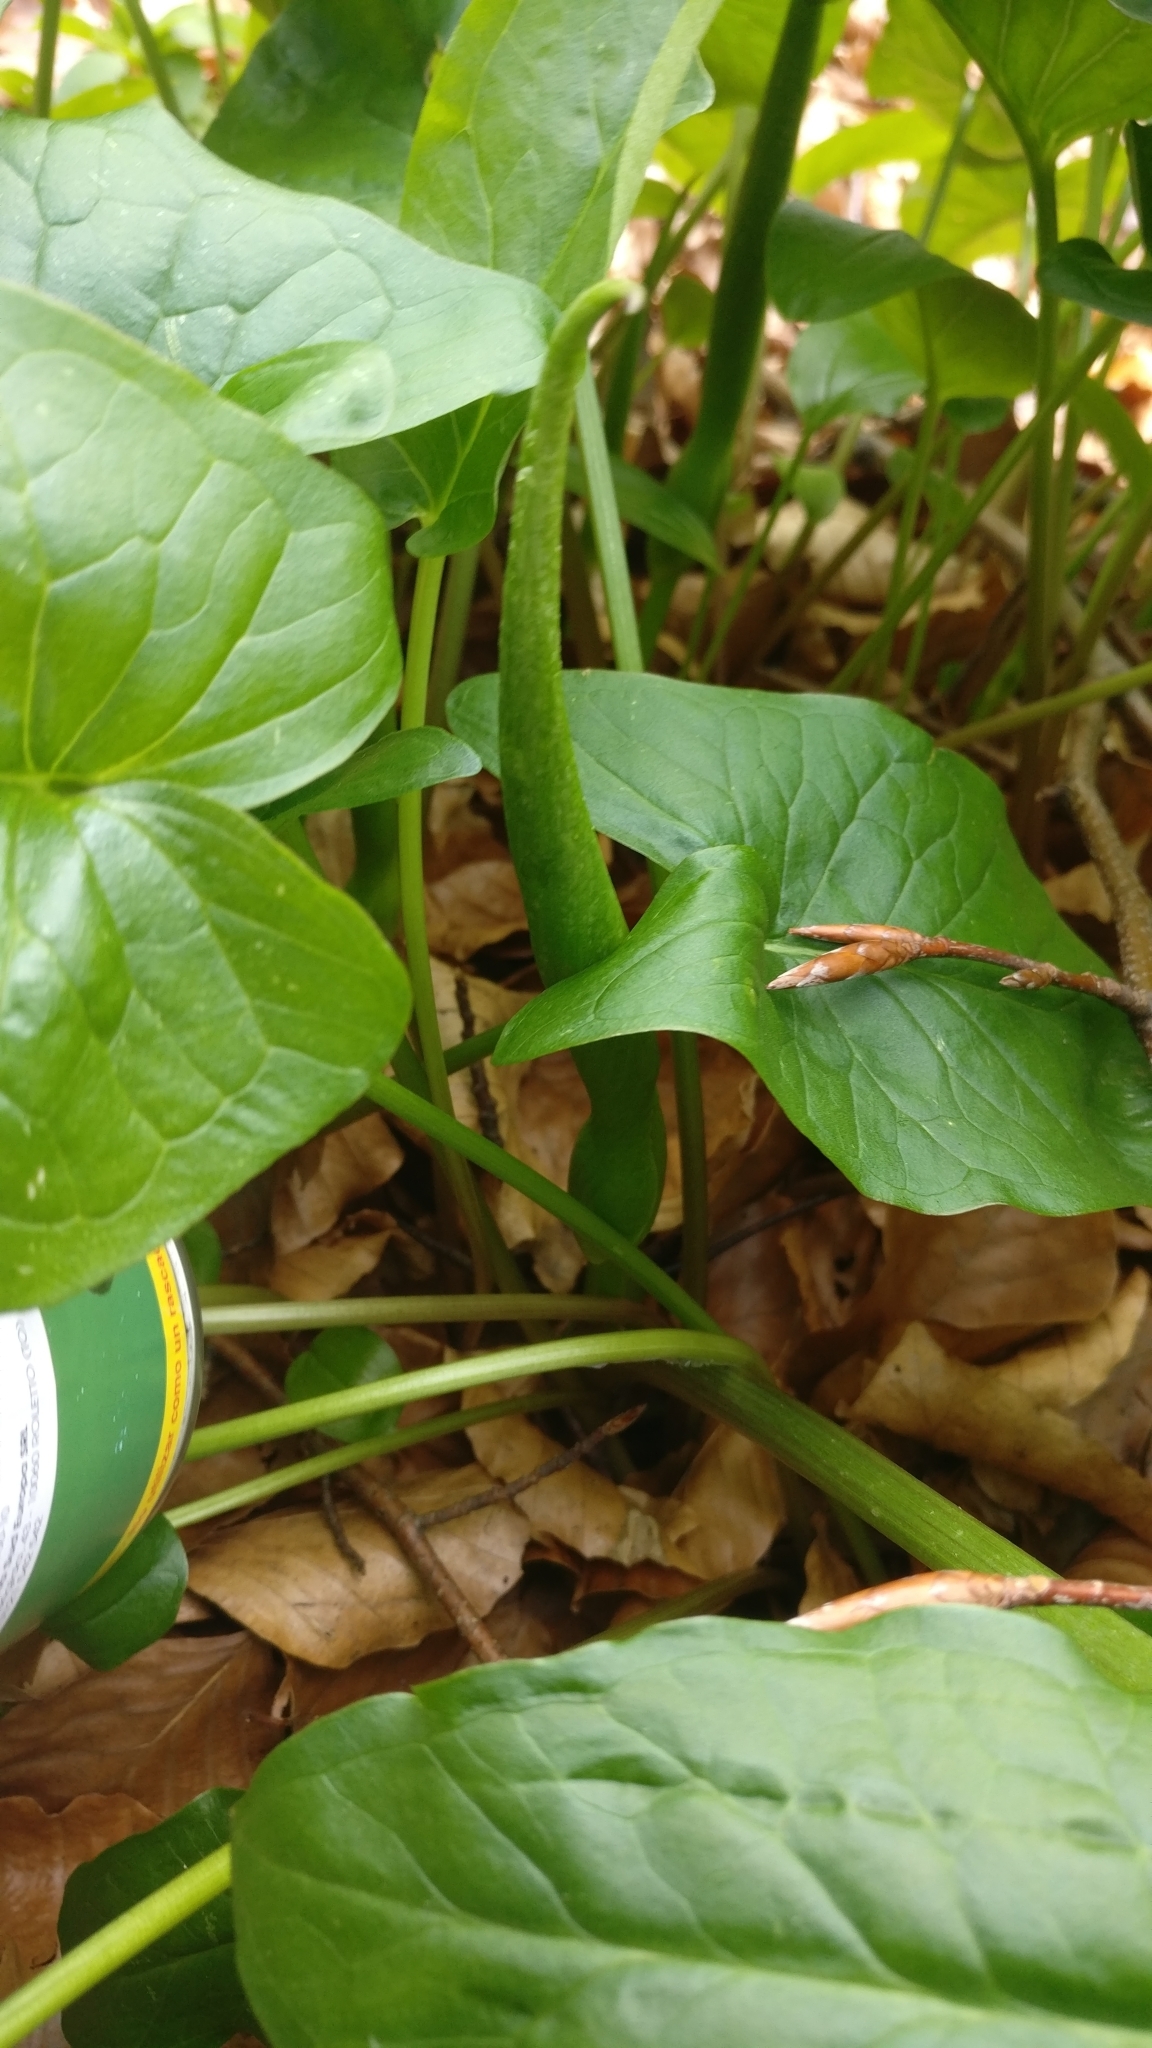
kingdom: Plantae
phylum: Tracheophyta
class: Liliopsida
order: Alismatales
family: Araceae
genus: Arum
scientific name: Arum maculatum
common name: Lords-and-ladies
